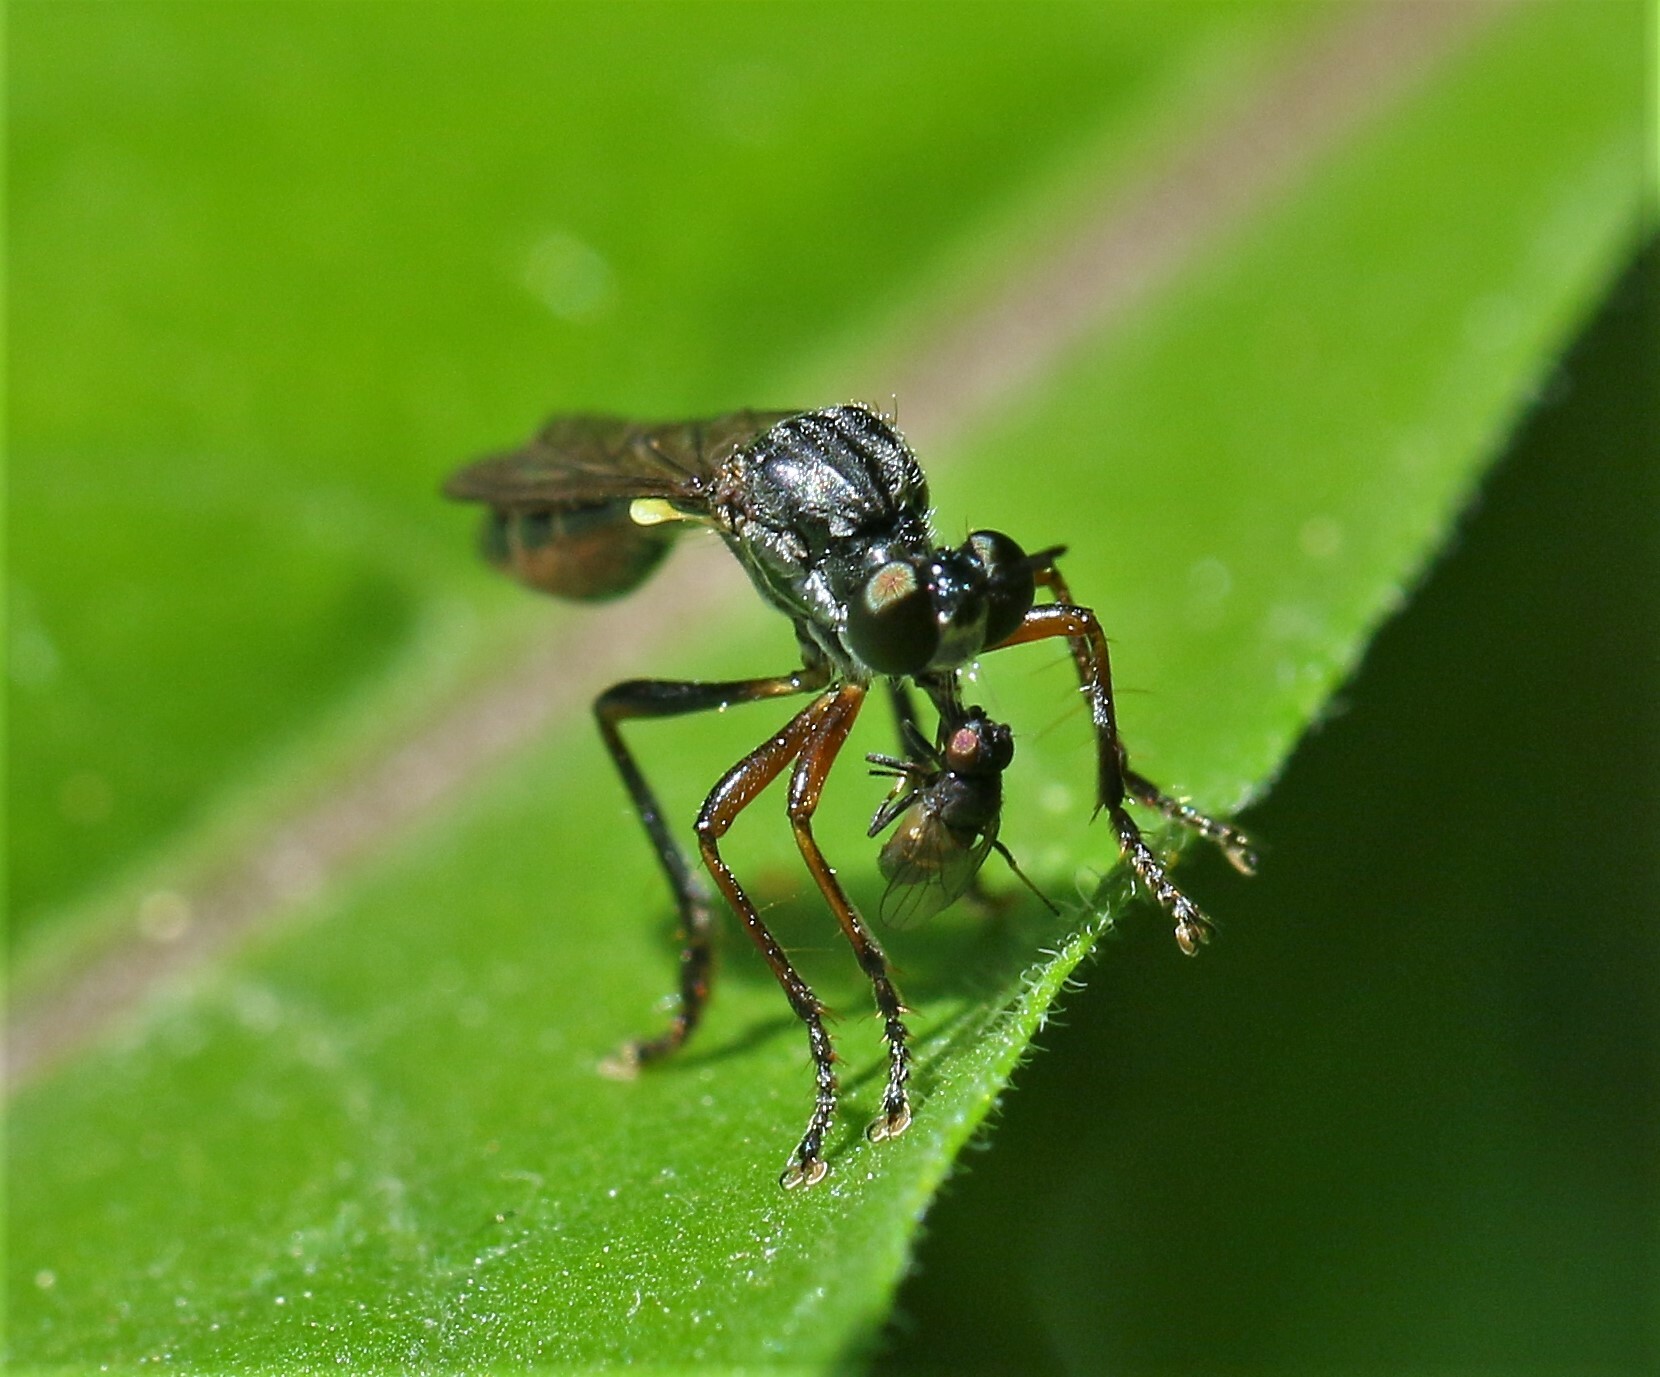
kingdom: Animalia
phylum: Arthropoda
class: Insecta
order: Diptera
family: Asilidae
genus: Dioctria
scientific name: Dioctria hyalipennis
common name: Stripe-legged robberfly
